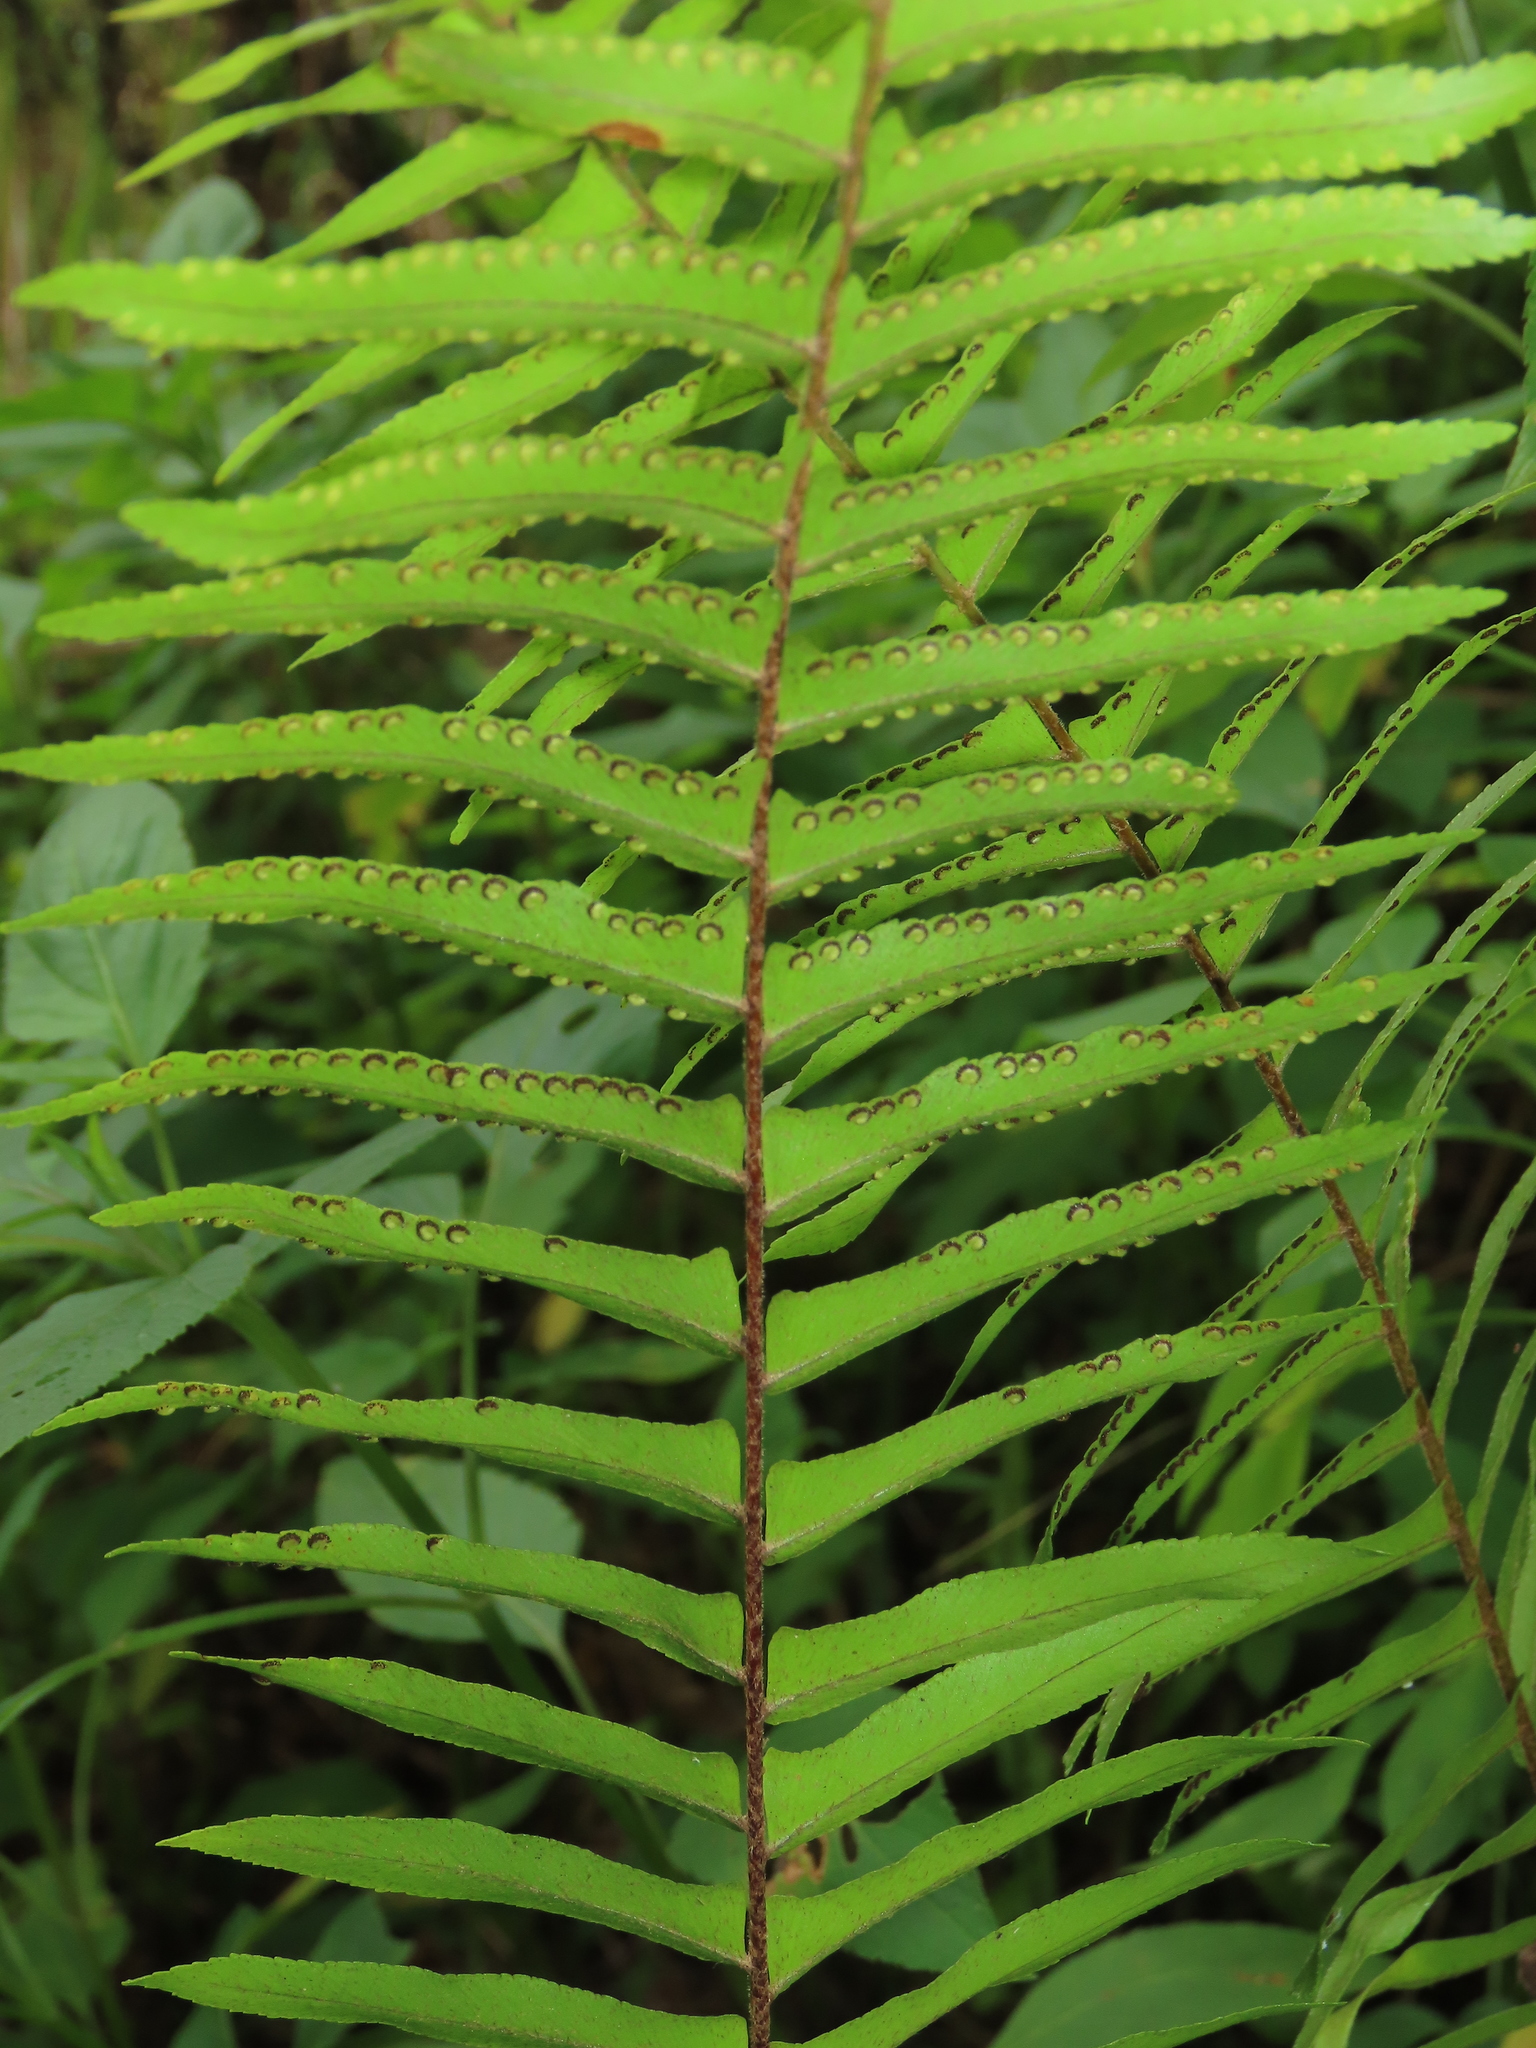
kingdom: Plantae
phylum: Tracheophyta
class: Polypodiopsida
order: Polypodiales
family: Nephrolepidaceae
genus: Nephrolepis
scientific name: Nephrolepis brownii
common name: Asian swordfern
